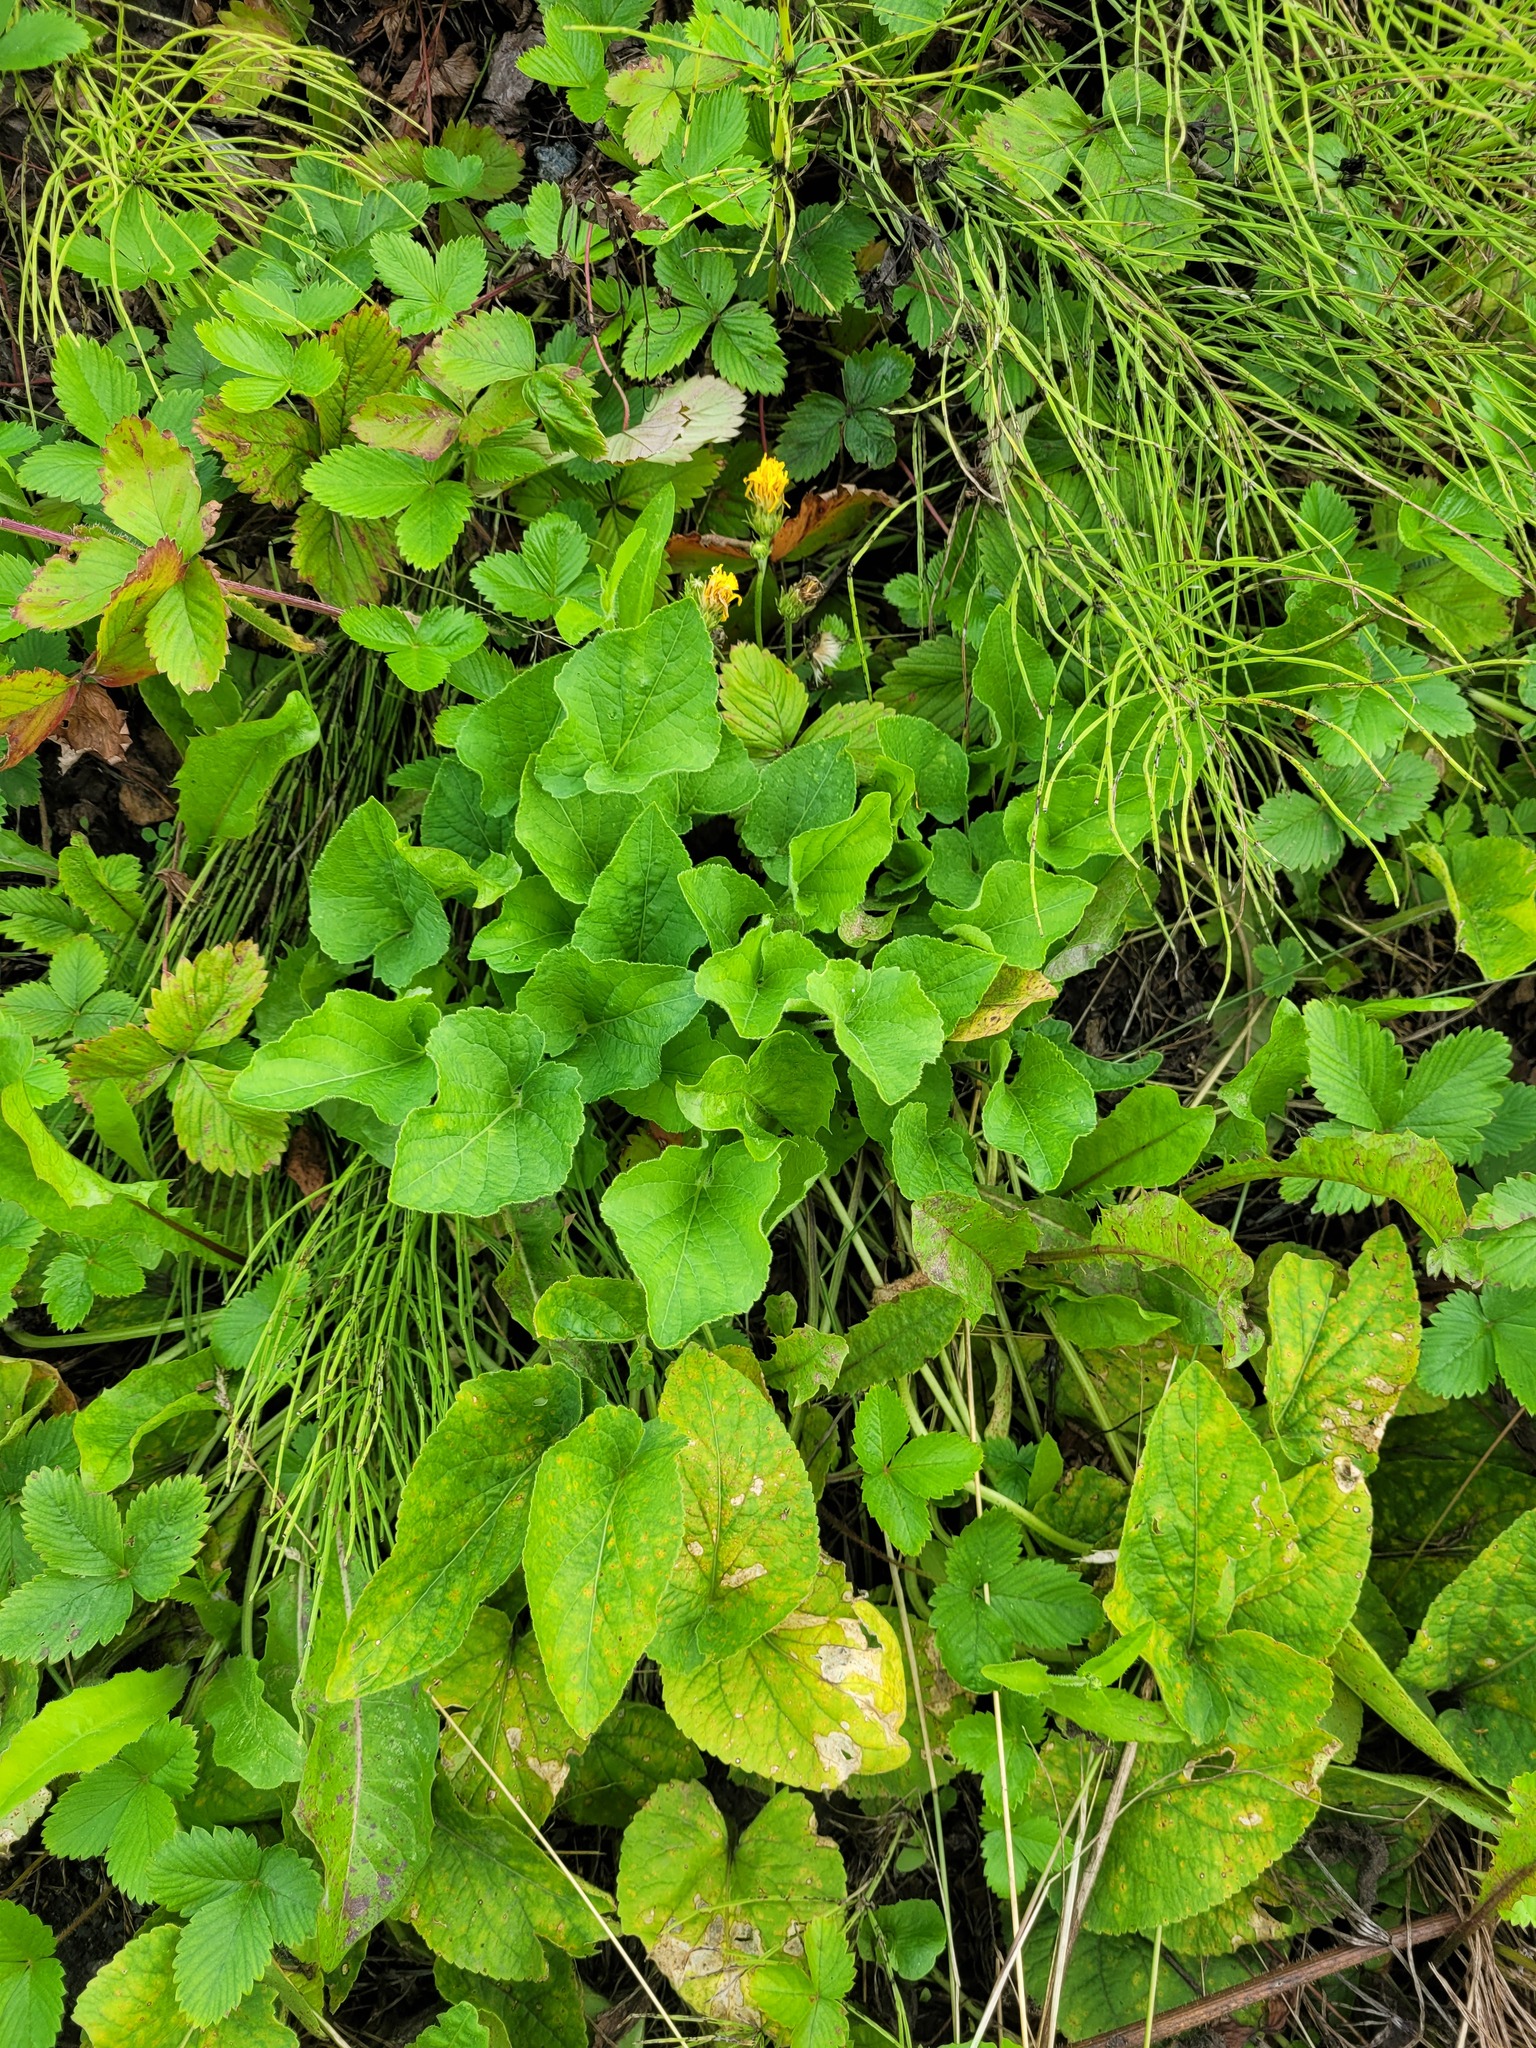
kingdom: Plantae
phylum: Tracheophyta
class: Magnoliopsida
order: Malpighiales
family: Violaceae
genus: Viola
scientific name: Viola hirta
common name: Hairy violet
